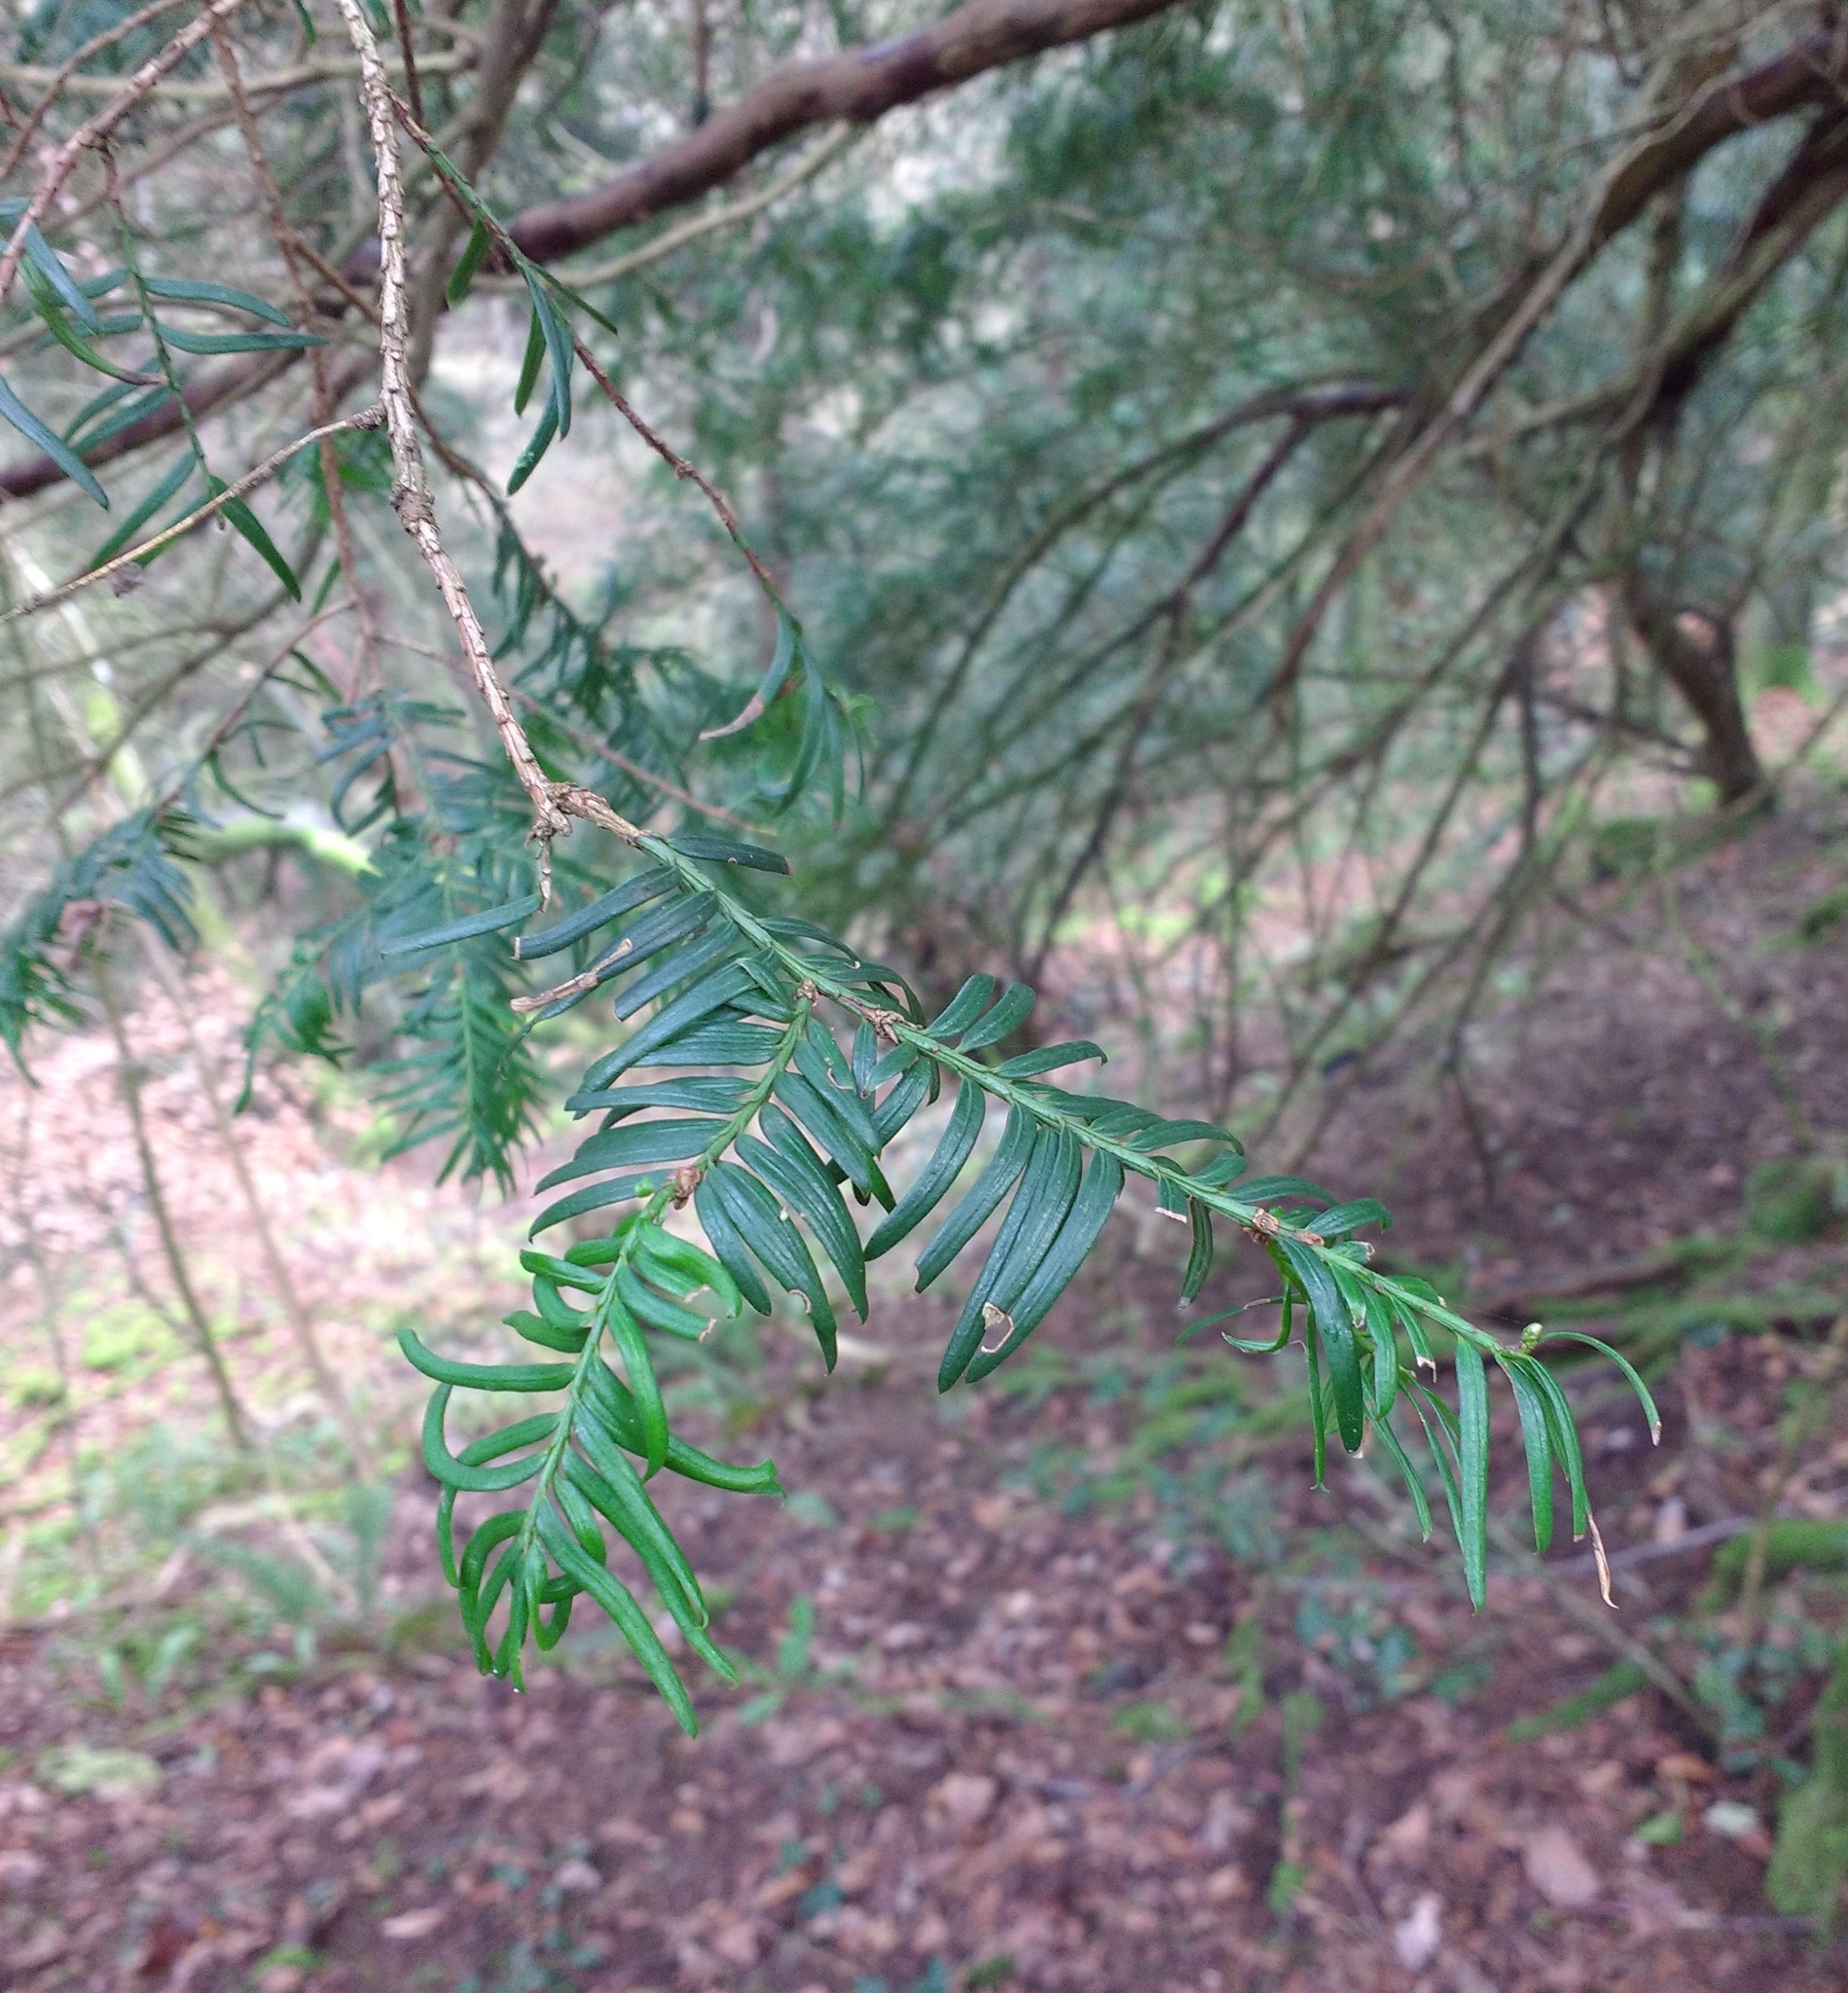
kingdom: Plantae
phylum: Tracheophyta
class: Pinopsida
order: Pinales
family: Taxaceae
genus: Taxus
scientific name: Taxus baccata
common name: Yew
